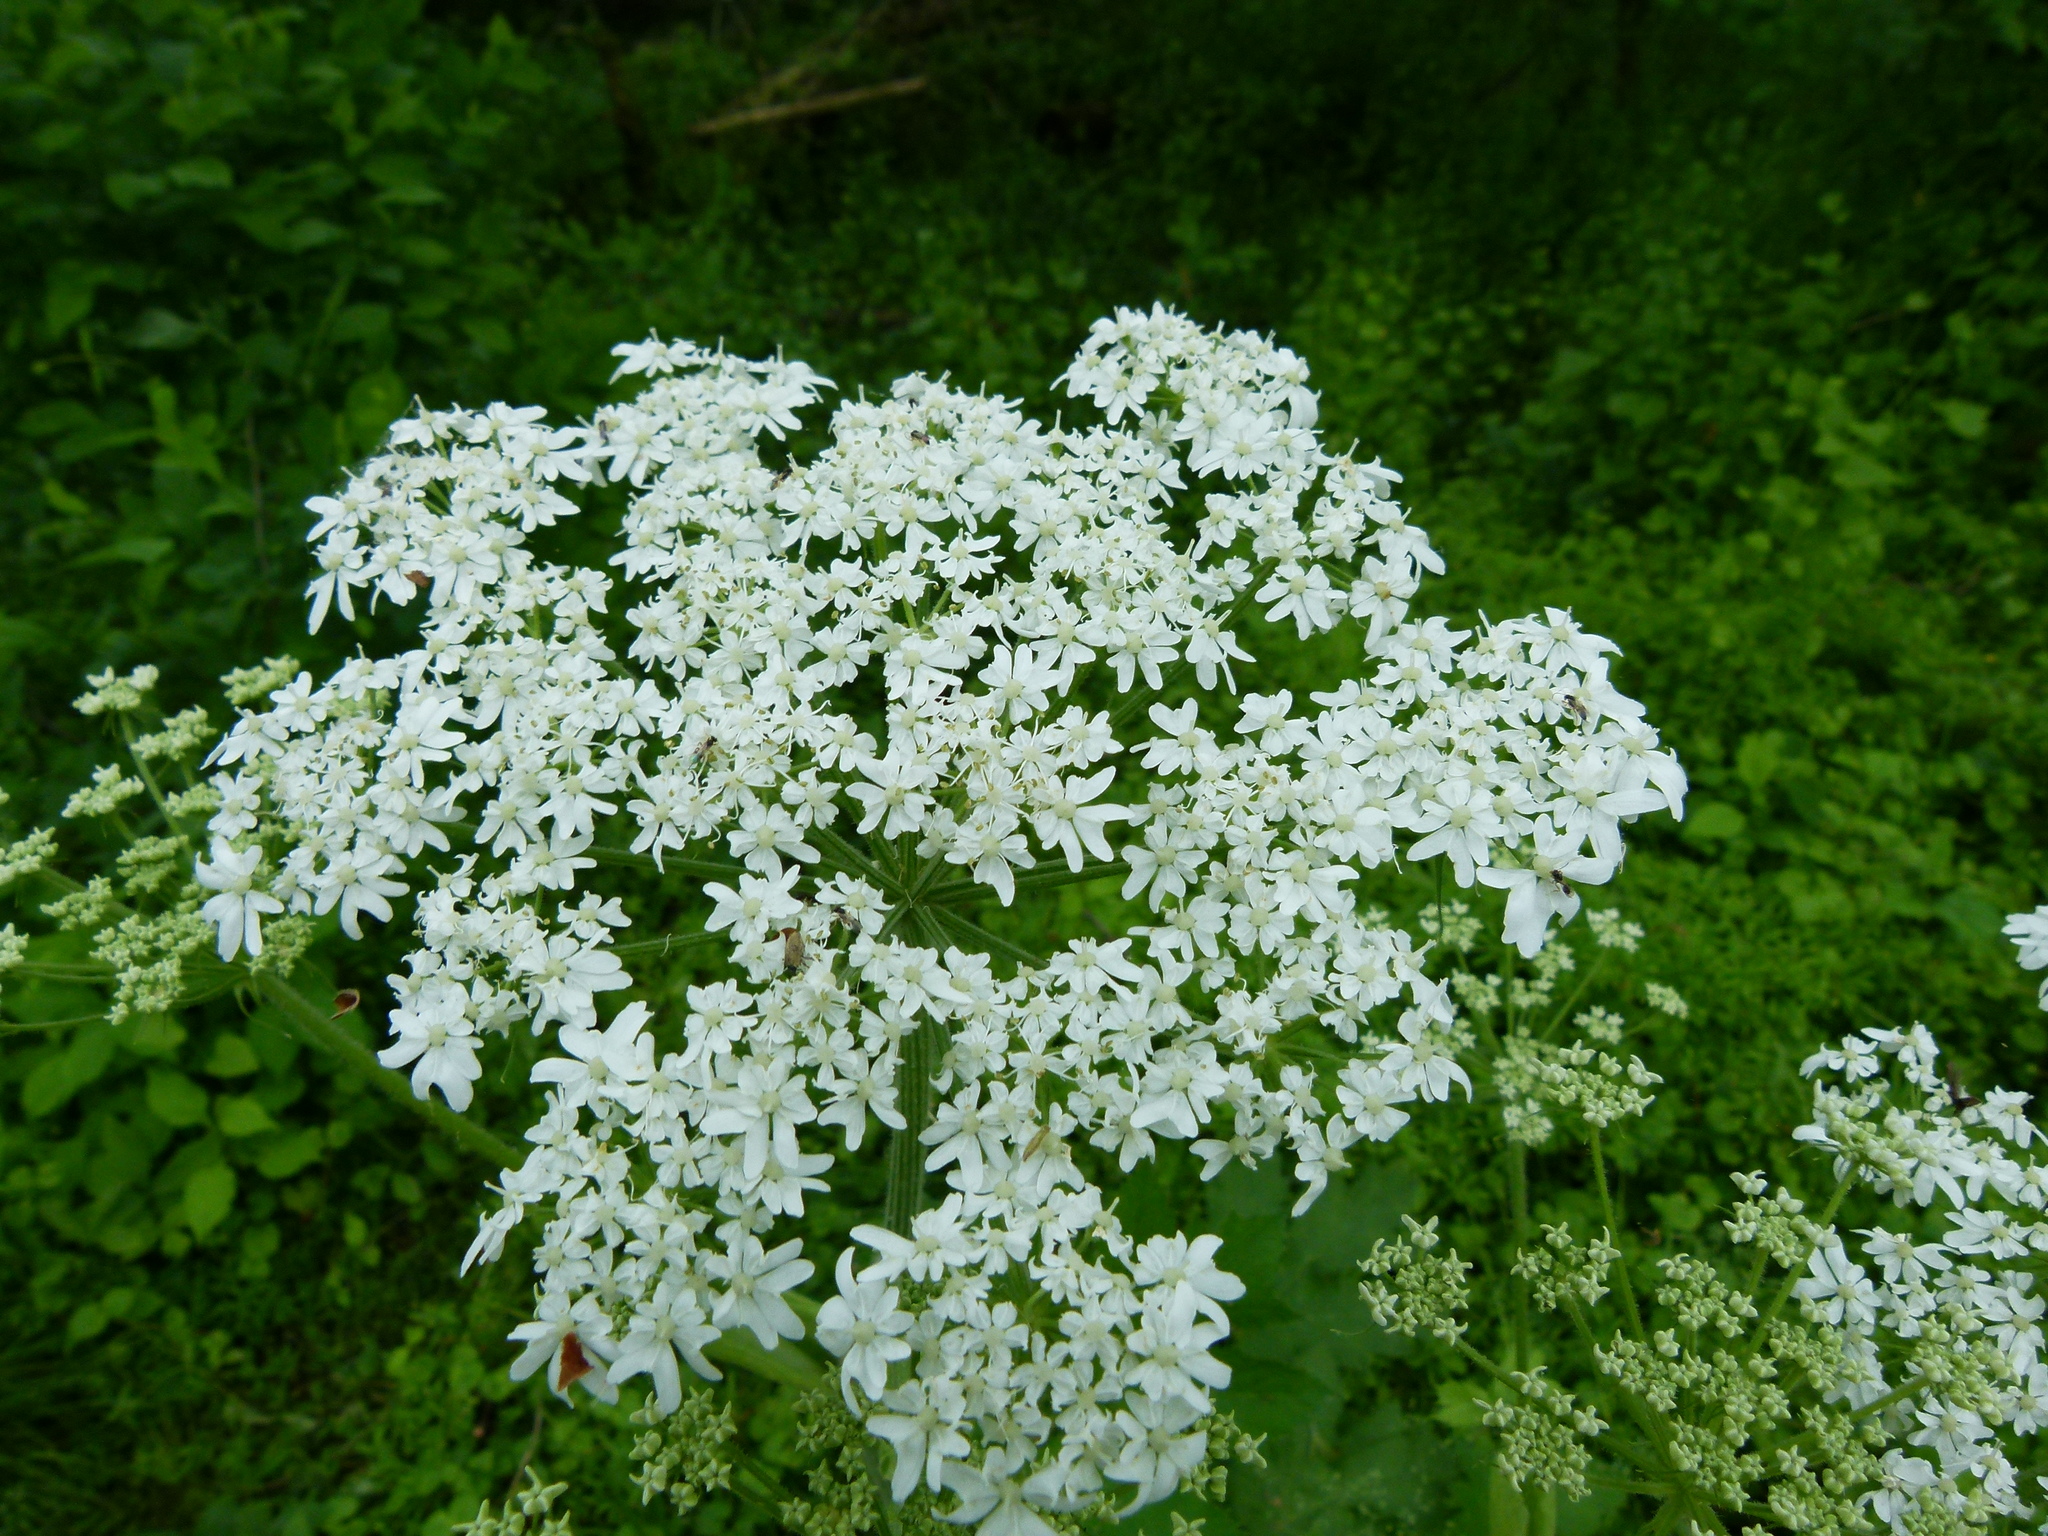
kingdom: Plantae
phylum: Tracheophyta
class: Magnoliopsida
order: Apiales
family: Apiaceae
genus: Heracleum
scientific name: Heracleum maximum
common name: American cow parsnip
